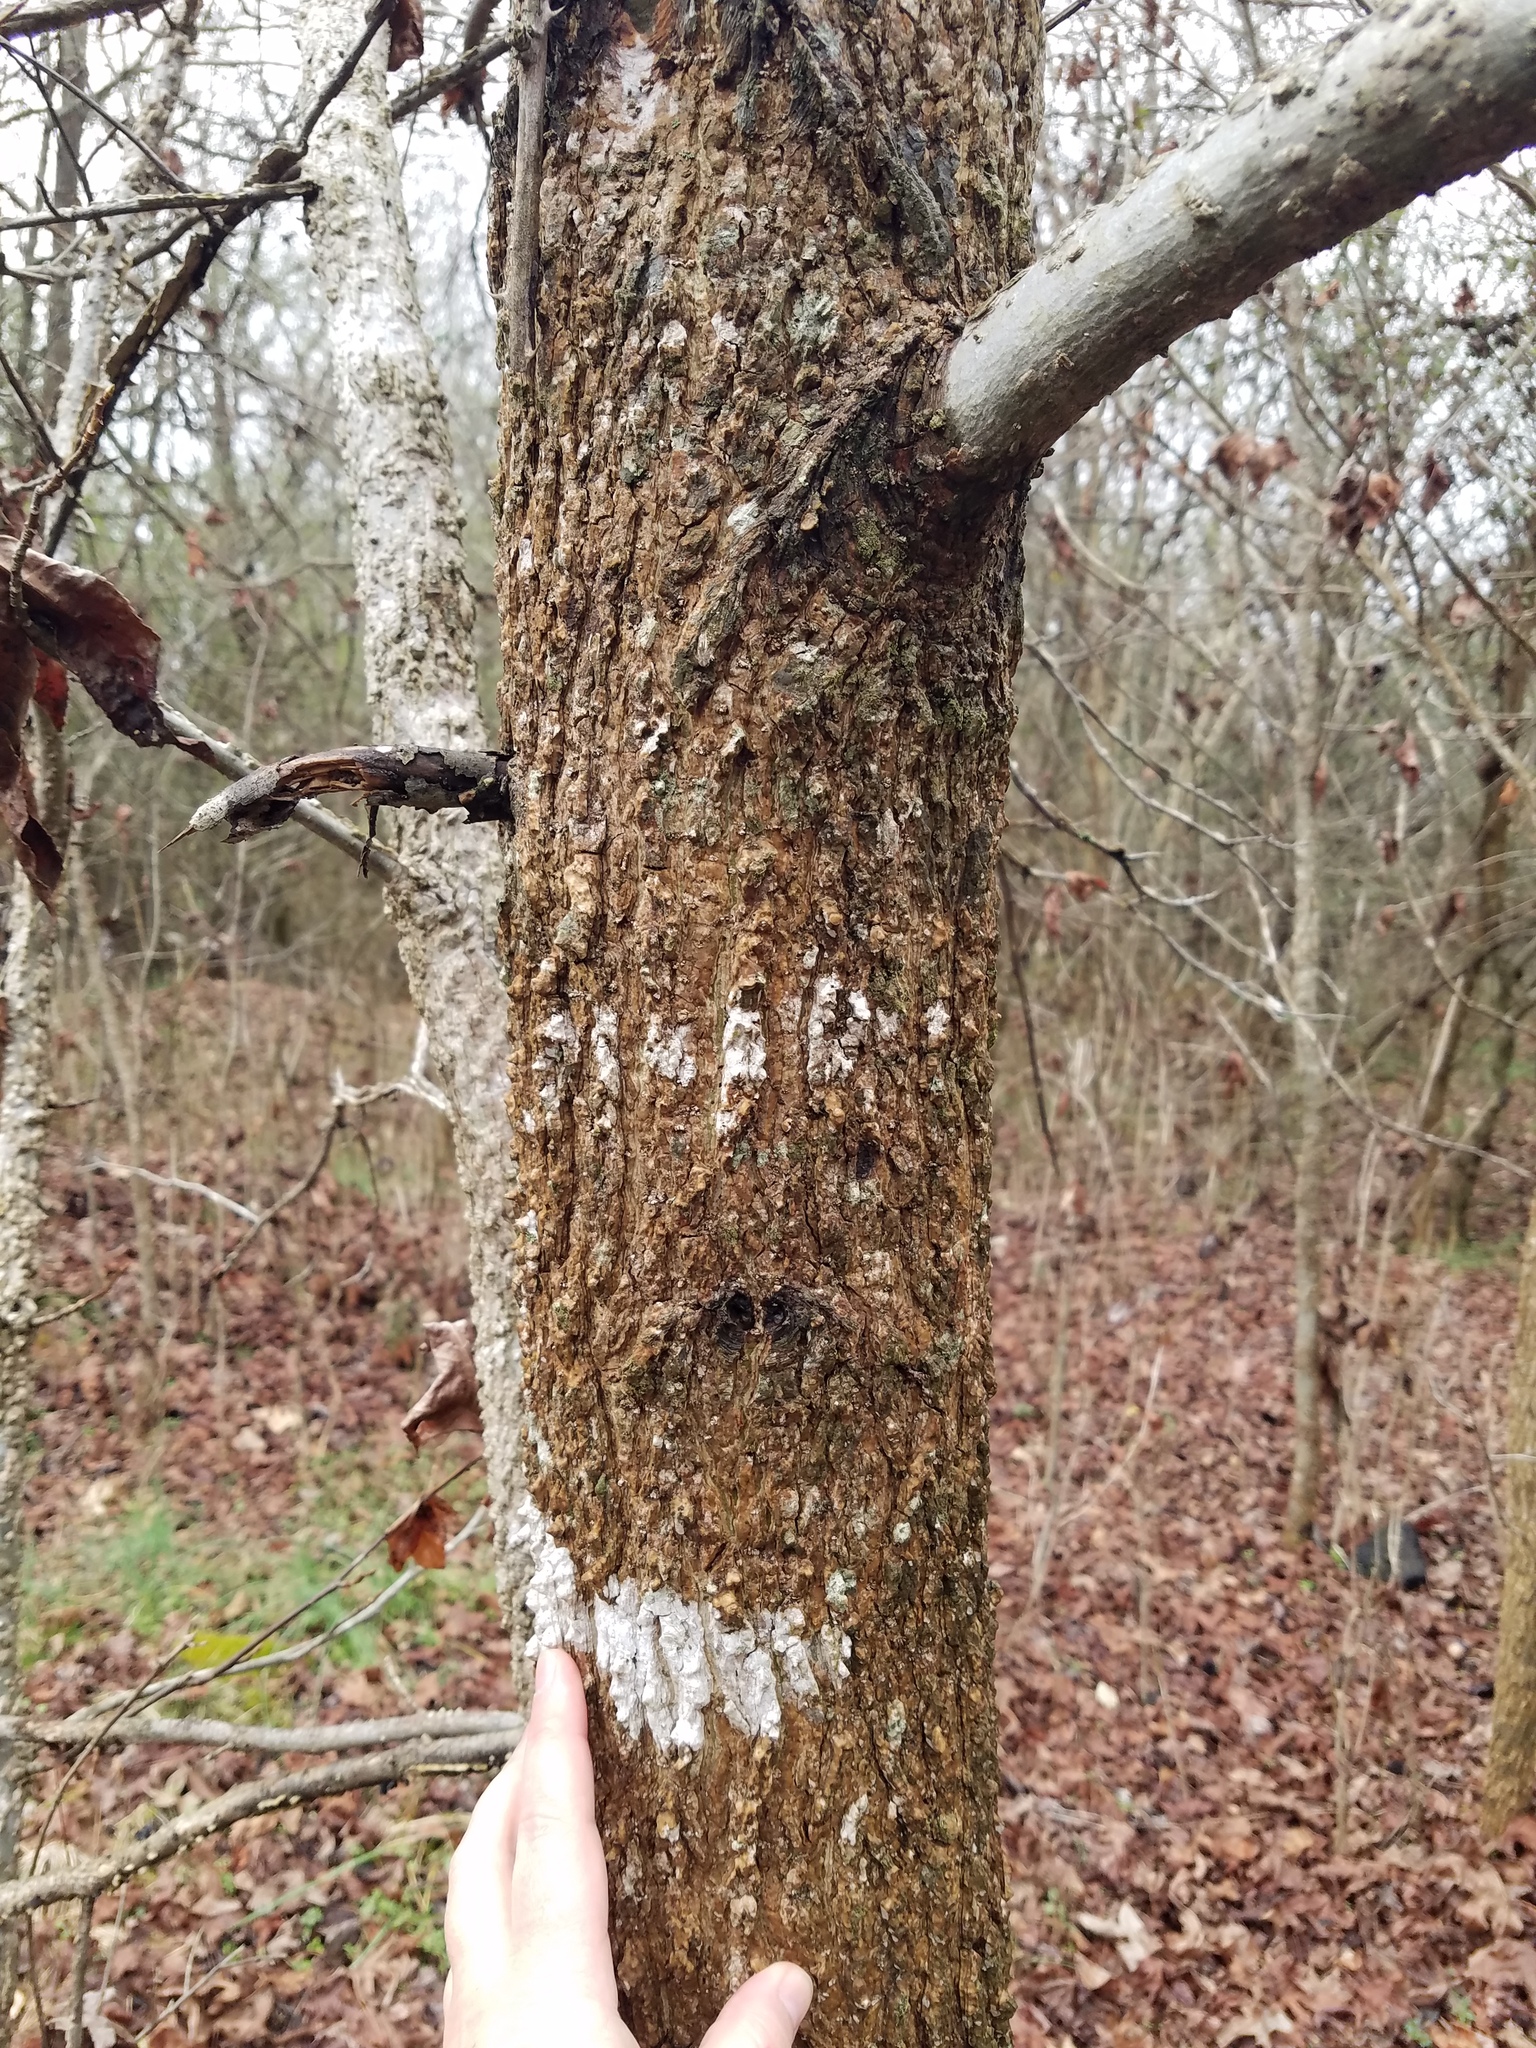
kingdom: Plantae
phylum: Tracheophyta
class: Magnoliopsida
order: Saxifragales
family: Altingiaceae
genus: Liquidambar
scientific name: Liquidambar styraciflua
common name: Sweet gum
